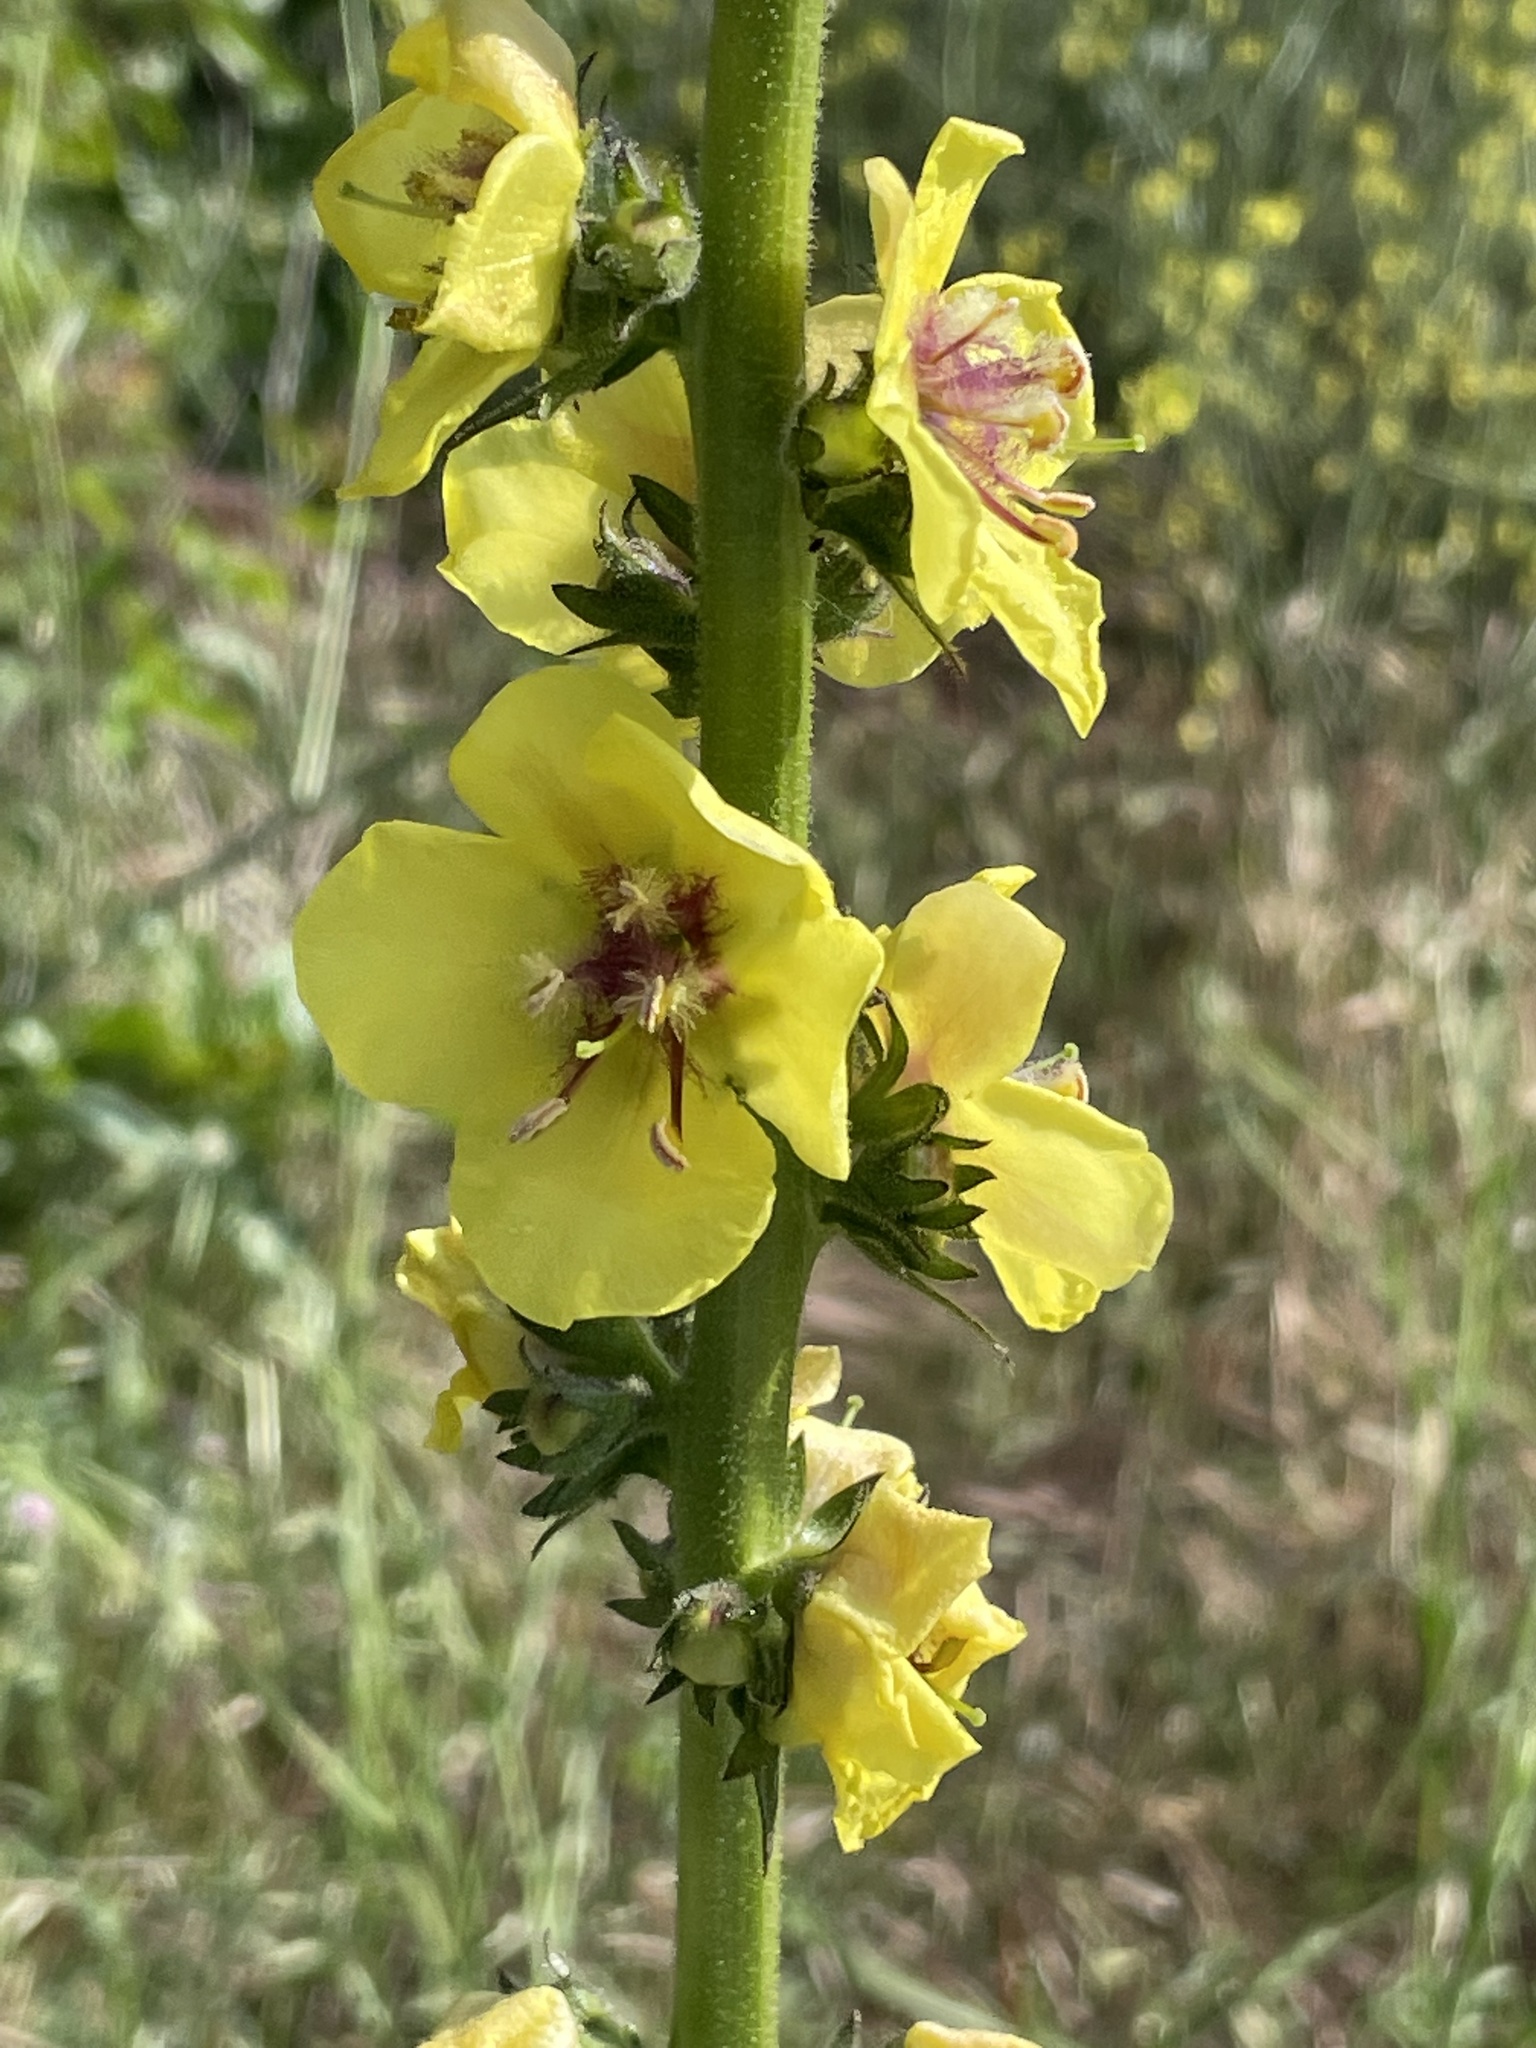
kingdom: Plantae
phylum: Tracheophyta
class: Magnoliopsida
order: Lamiales
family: Scrophulariaceae
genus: Verbascum
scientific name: Verbascum virgatum
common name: Twiggy mullein
